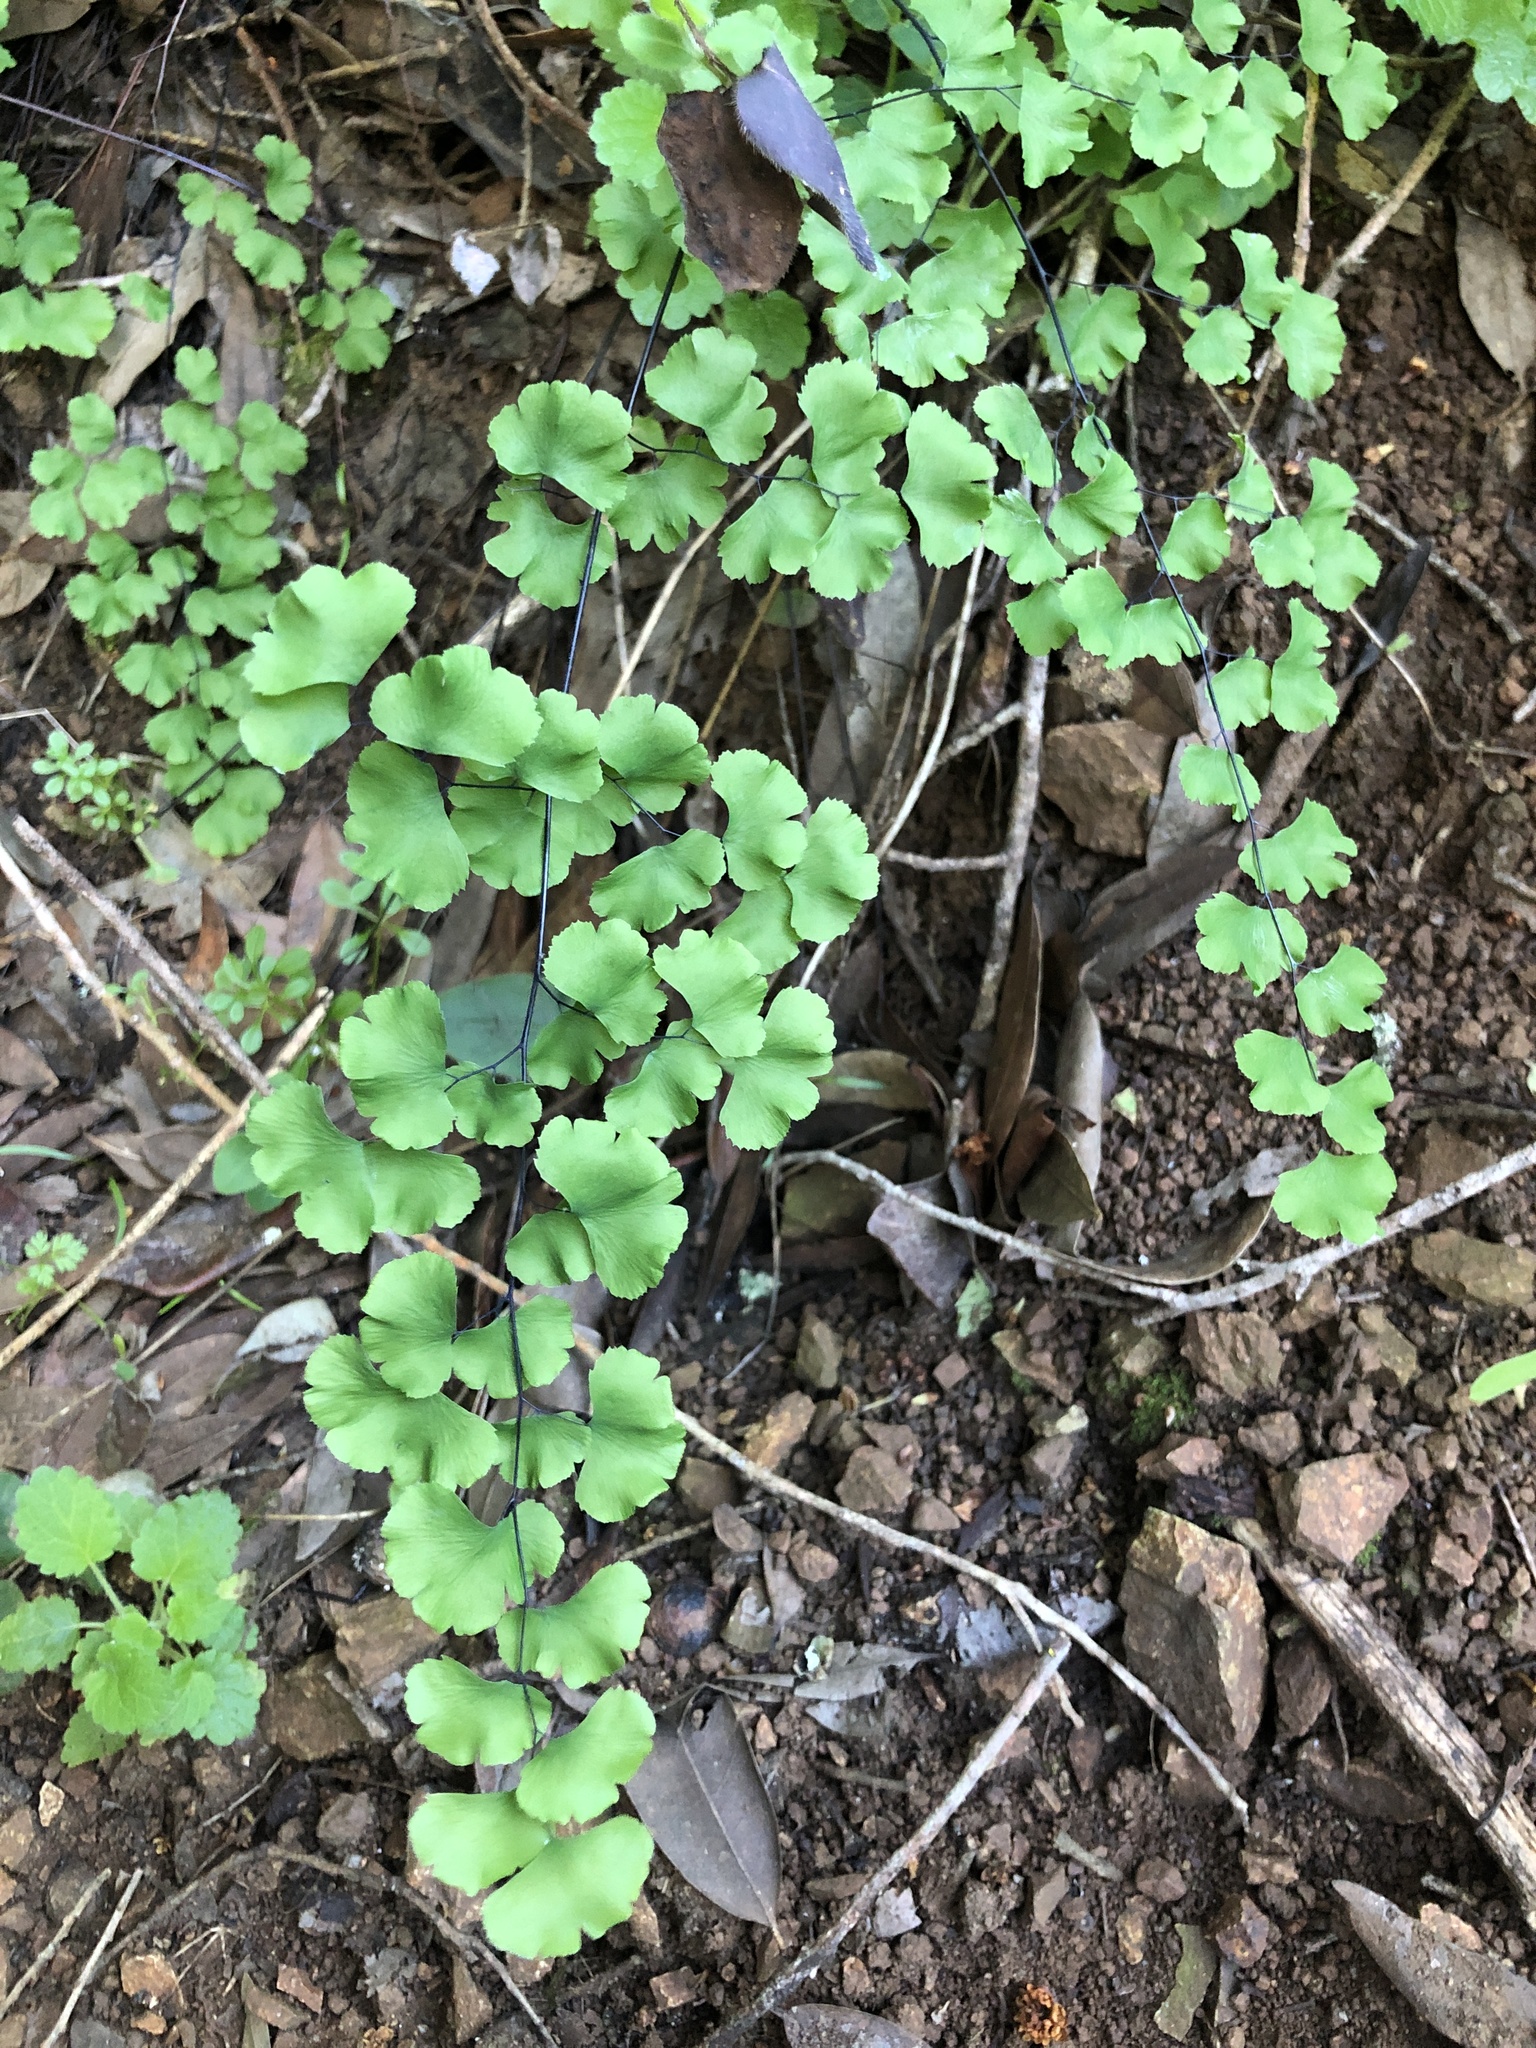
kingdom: Plantae
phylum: Tracheophyta
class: Polypodiopsida
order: Polypodiales
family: Pteridaceae
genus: Adiantum
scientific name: Adiantum jordanii
